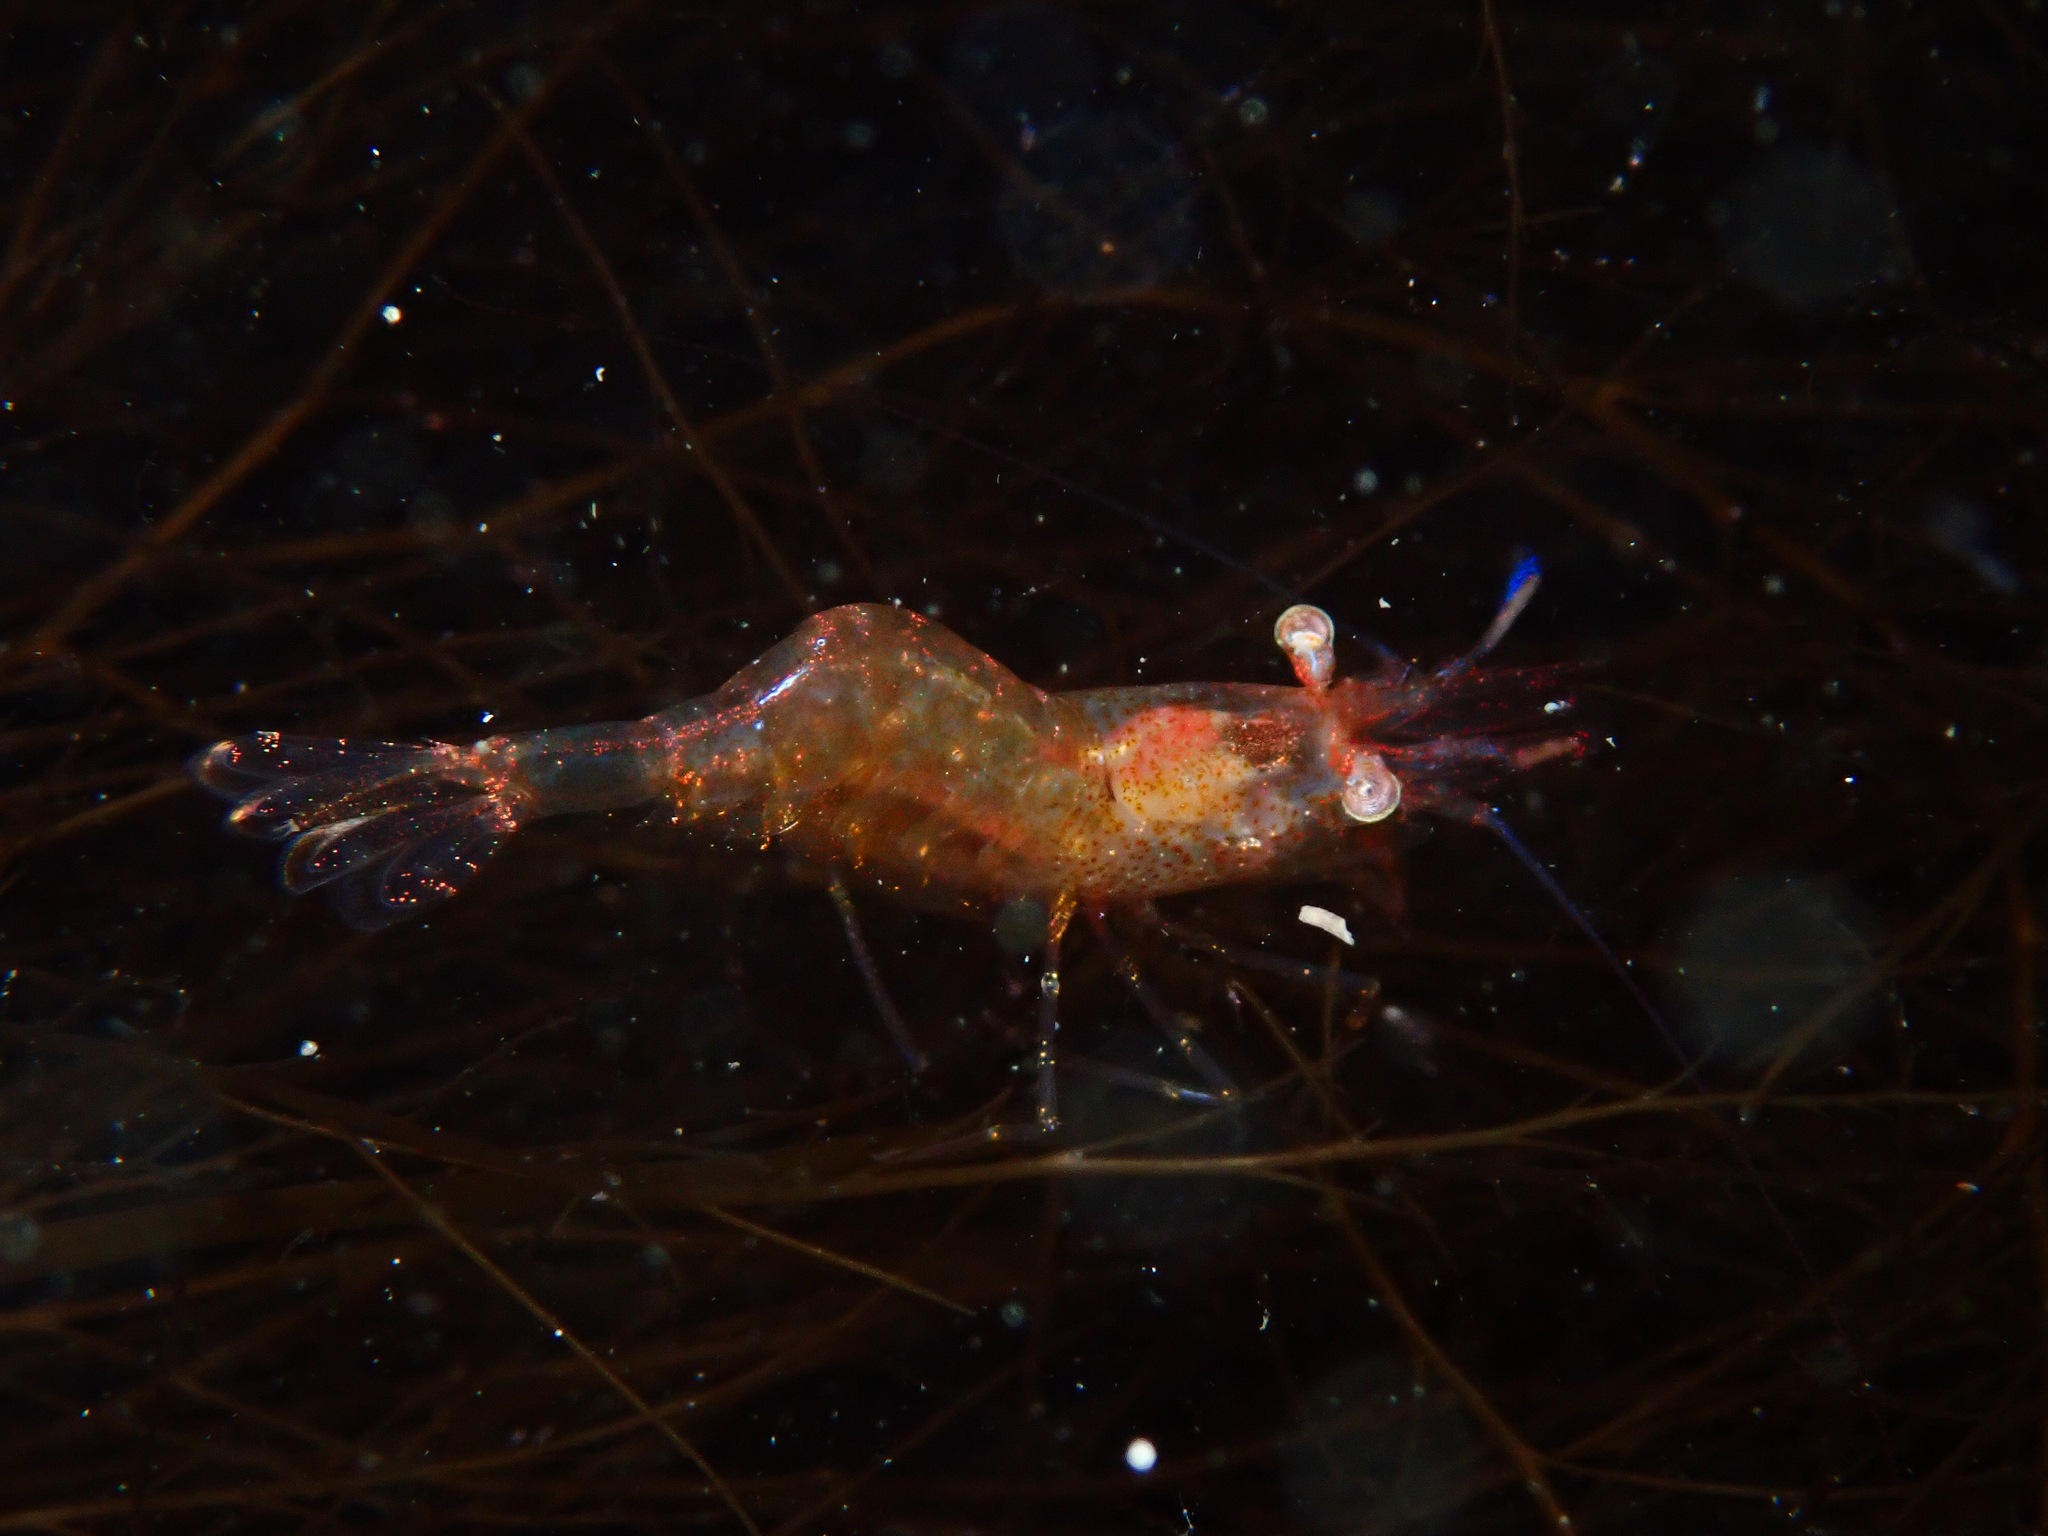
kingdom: Animalia
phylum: Arthropoda
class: Malacostraca
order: Decapoda
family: Thoridae
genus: Eualus
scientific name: Eualus gaimardii
